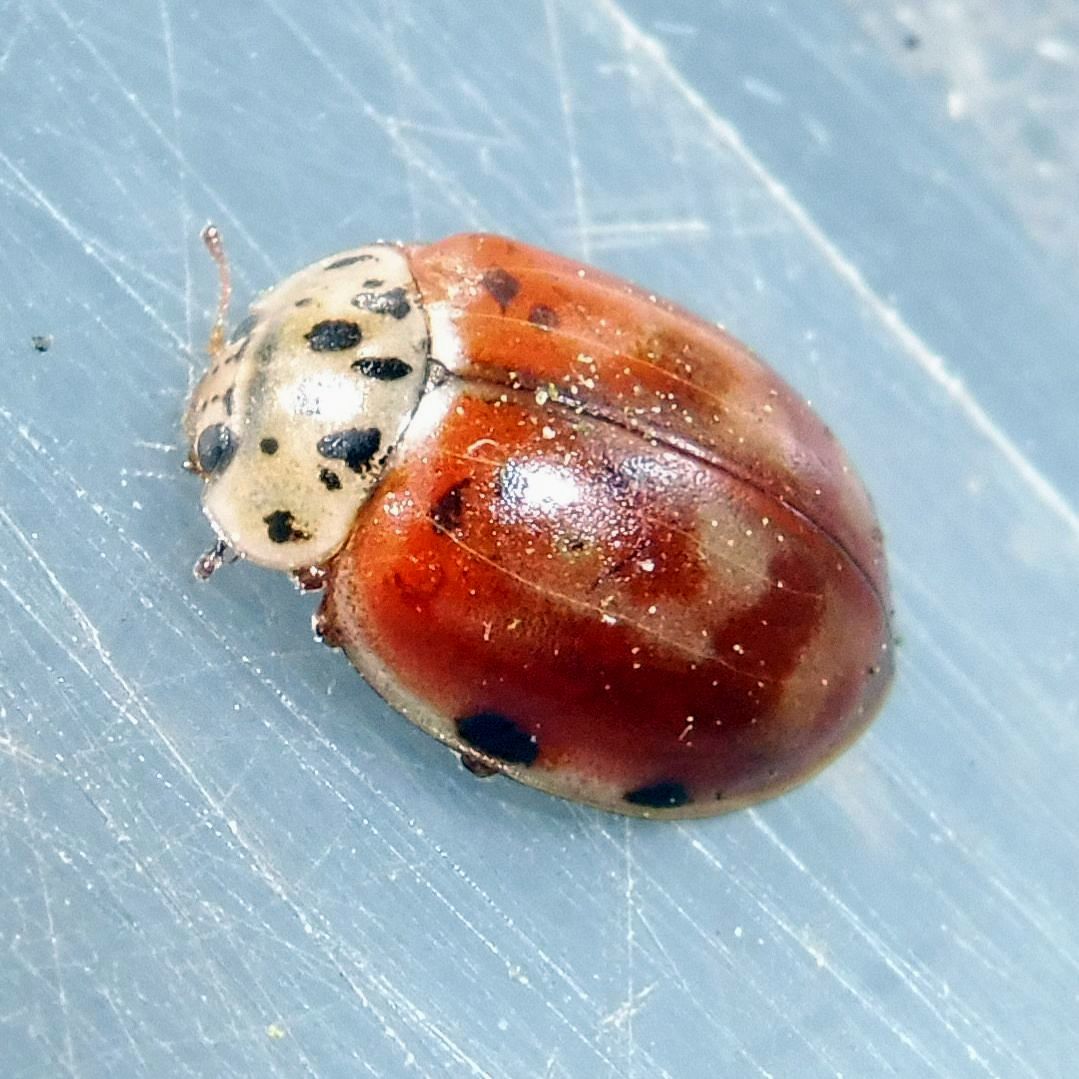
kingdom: Animalia
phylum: Arthropoda
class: Insecta
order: Coleoptera
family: Coccinellidae
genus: Harmonia
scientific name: Harmonia quadripunctata
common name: Cream-streaked ladybird
